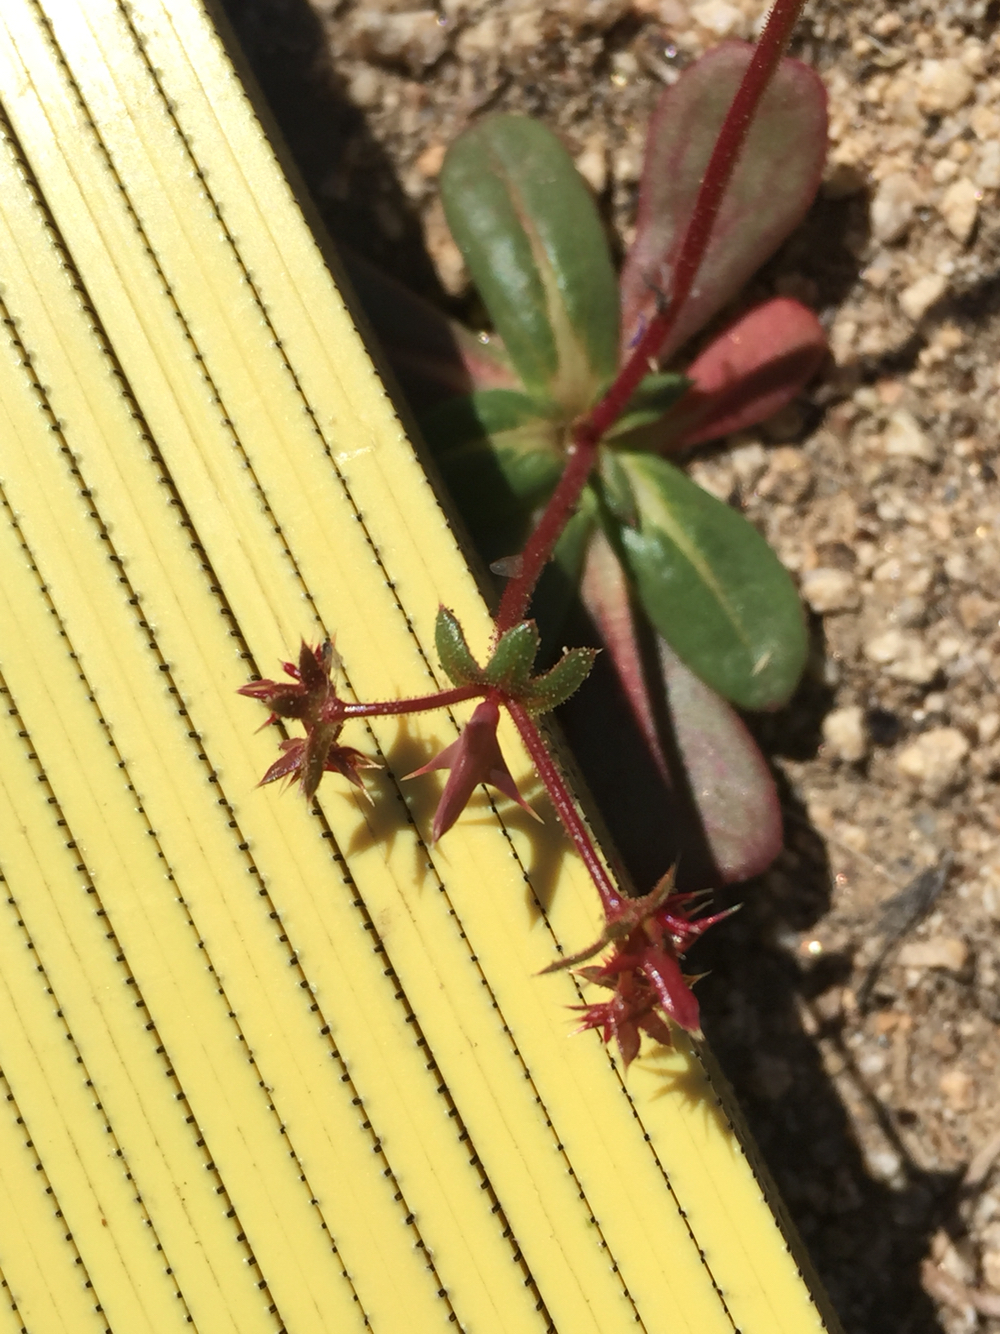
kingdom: Plantae
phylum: Tracheophyta
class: Magnoliopsida
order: Caryophyllales
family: Polygonaceae
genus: Centrostegia
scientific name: Centrostegia thurberi
